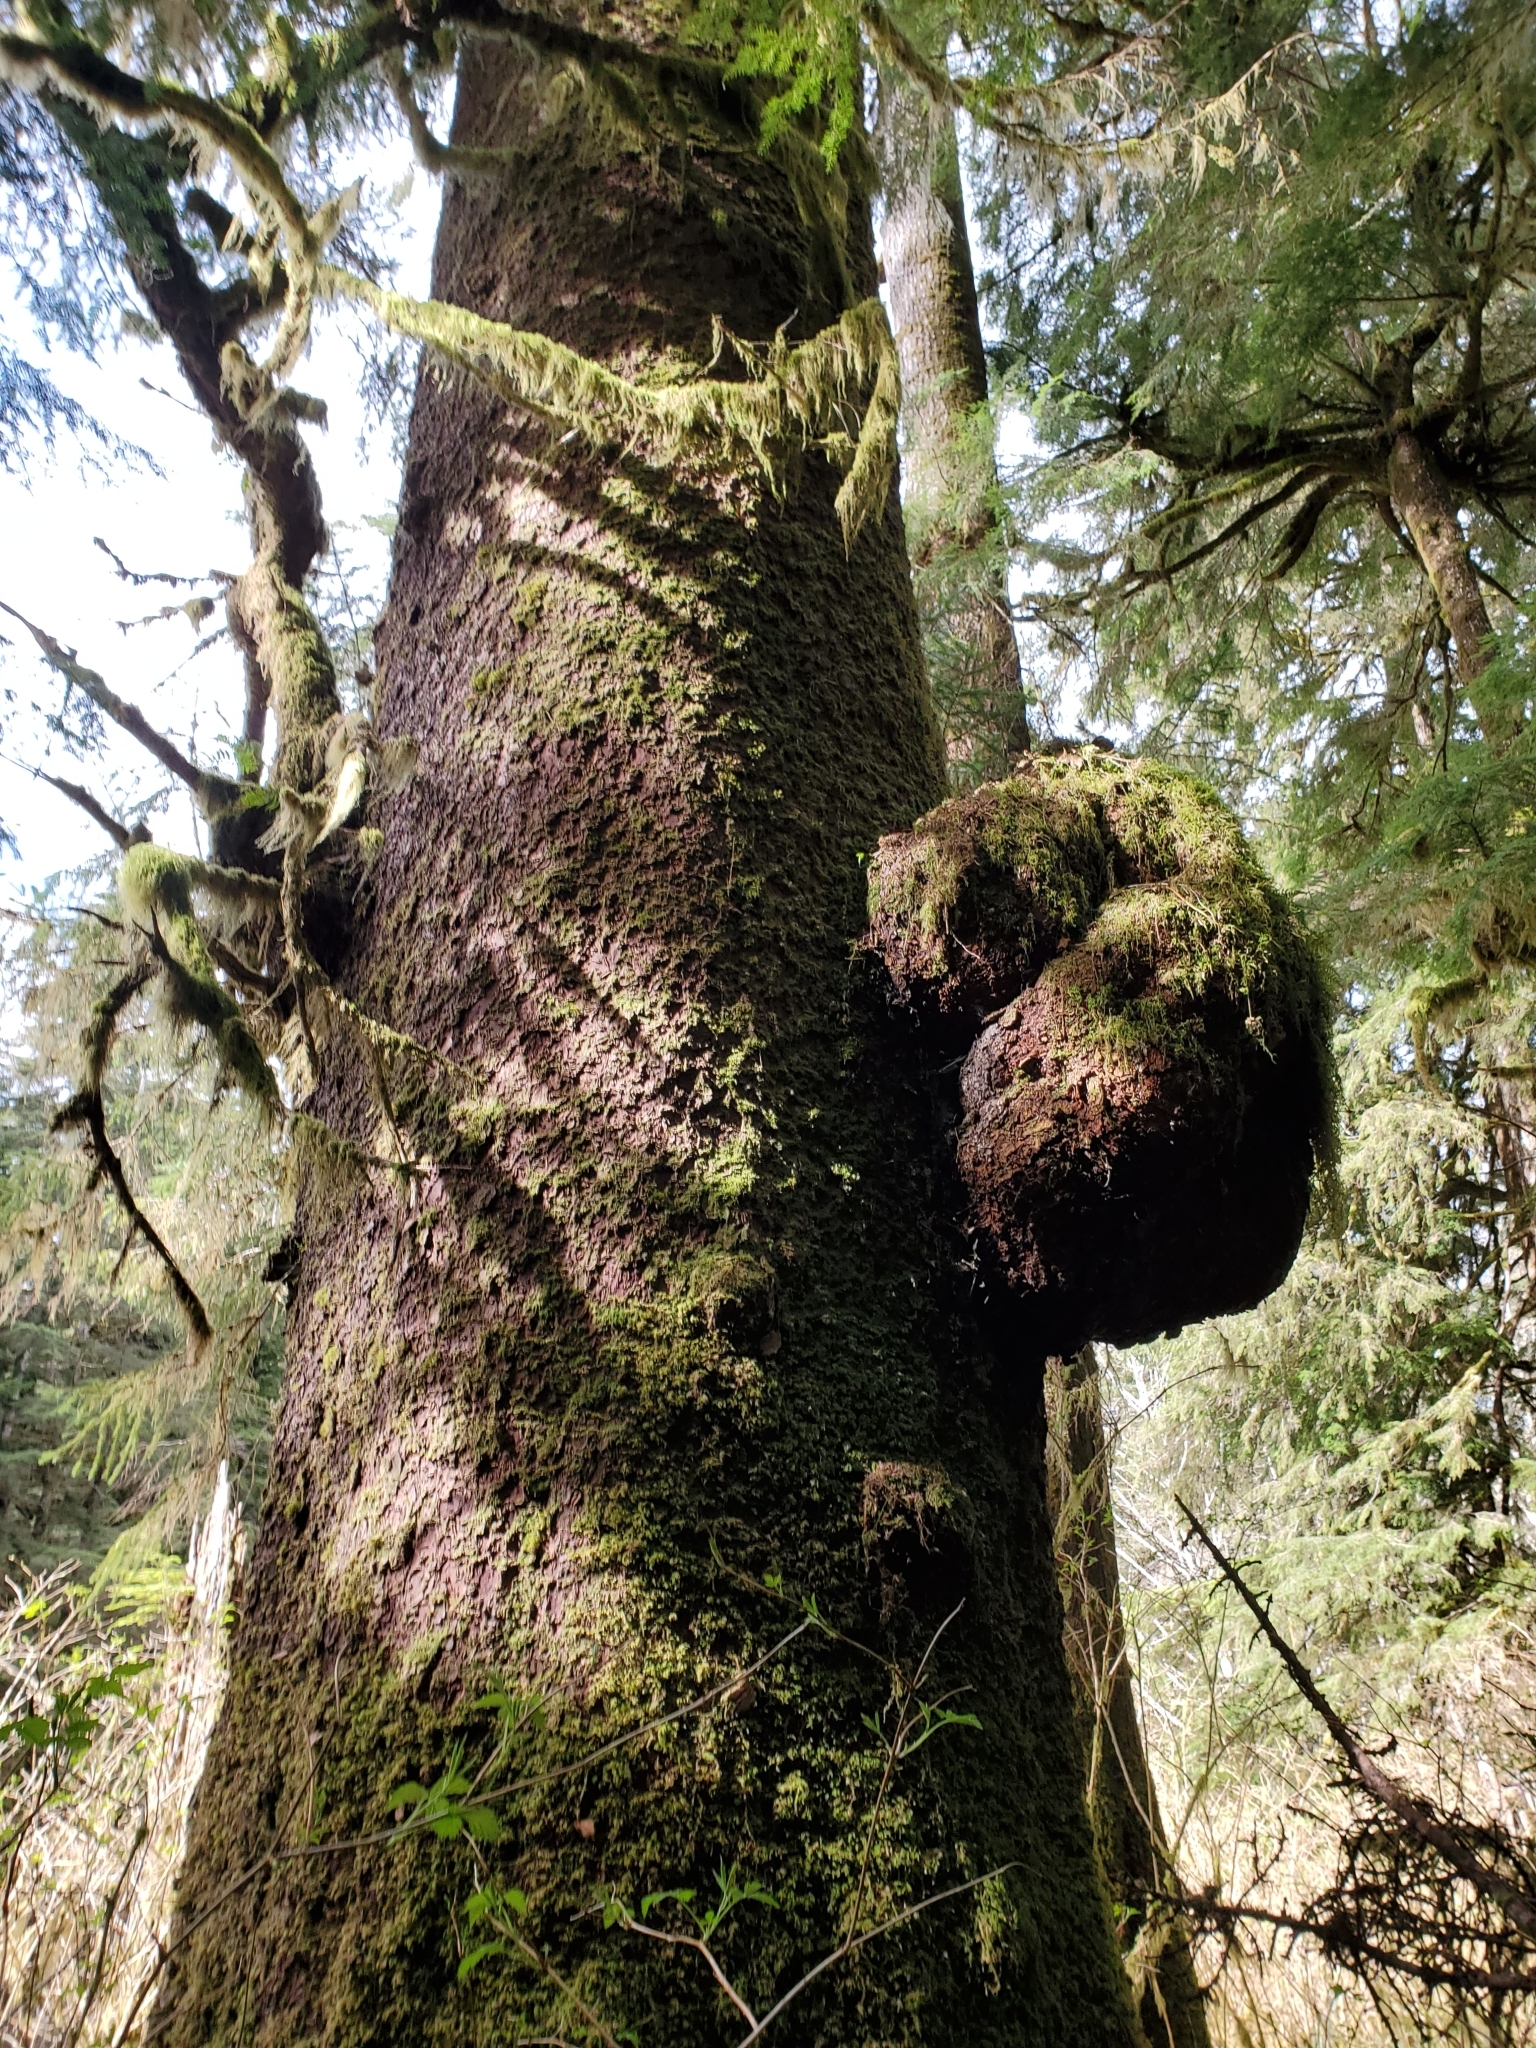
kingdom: Plantae
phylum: Tracheophyta
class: Pinopsida
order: Pinales
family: Pinaceae
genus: Picea
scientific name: Picea sitchensis
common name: Sitka spruce
